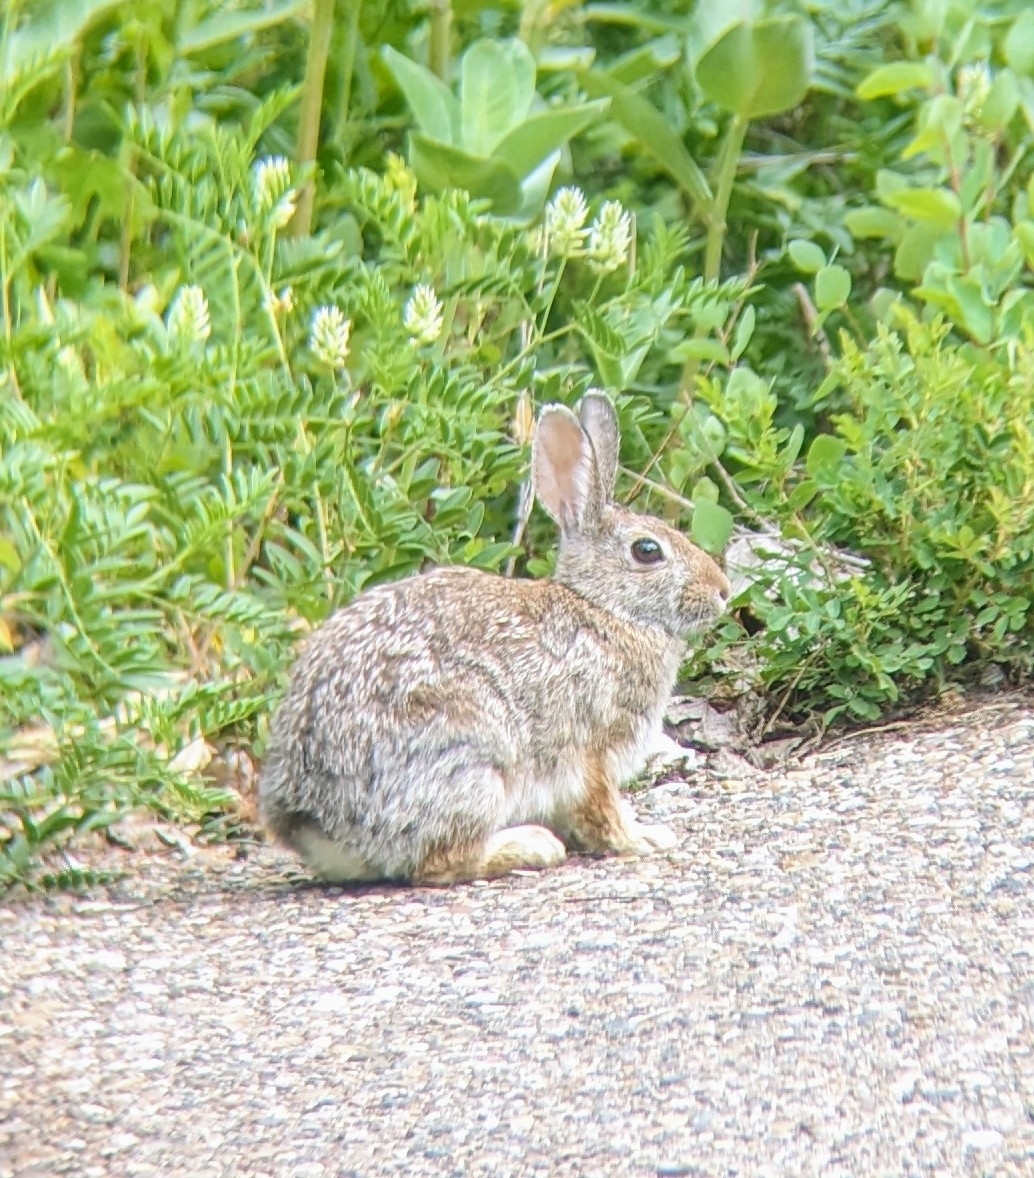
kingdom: Animalia
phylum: Chordata
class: Mammalia
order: Lagomorpha
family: Leporidae
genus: Sylvilagus
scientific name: Sylvilagus nuttallii
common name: Mountain cottontail
